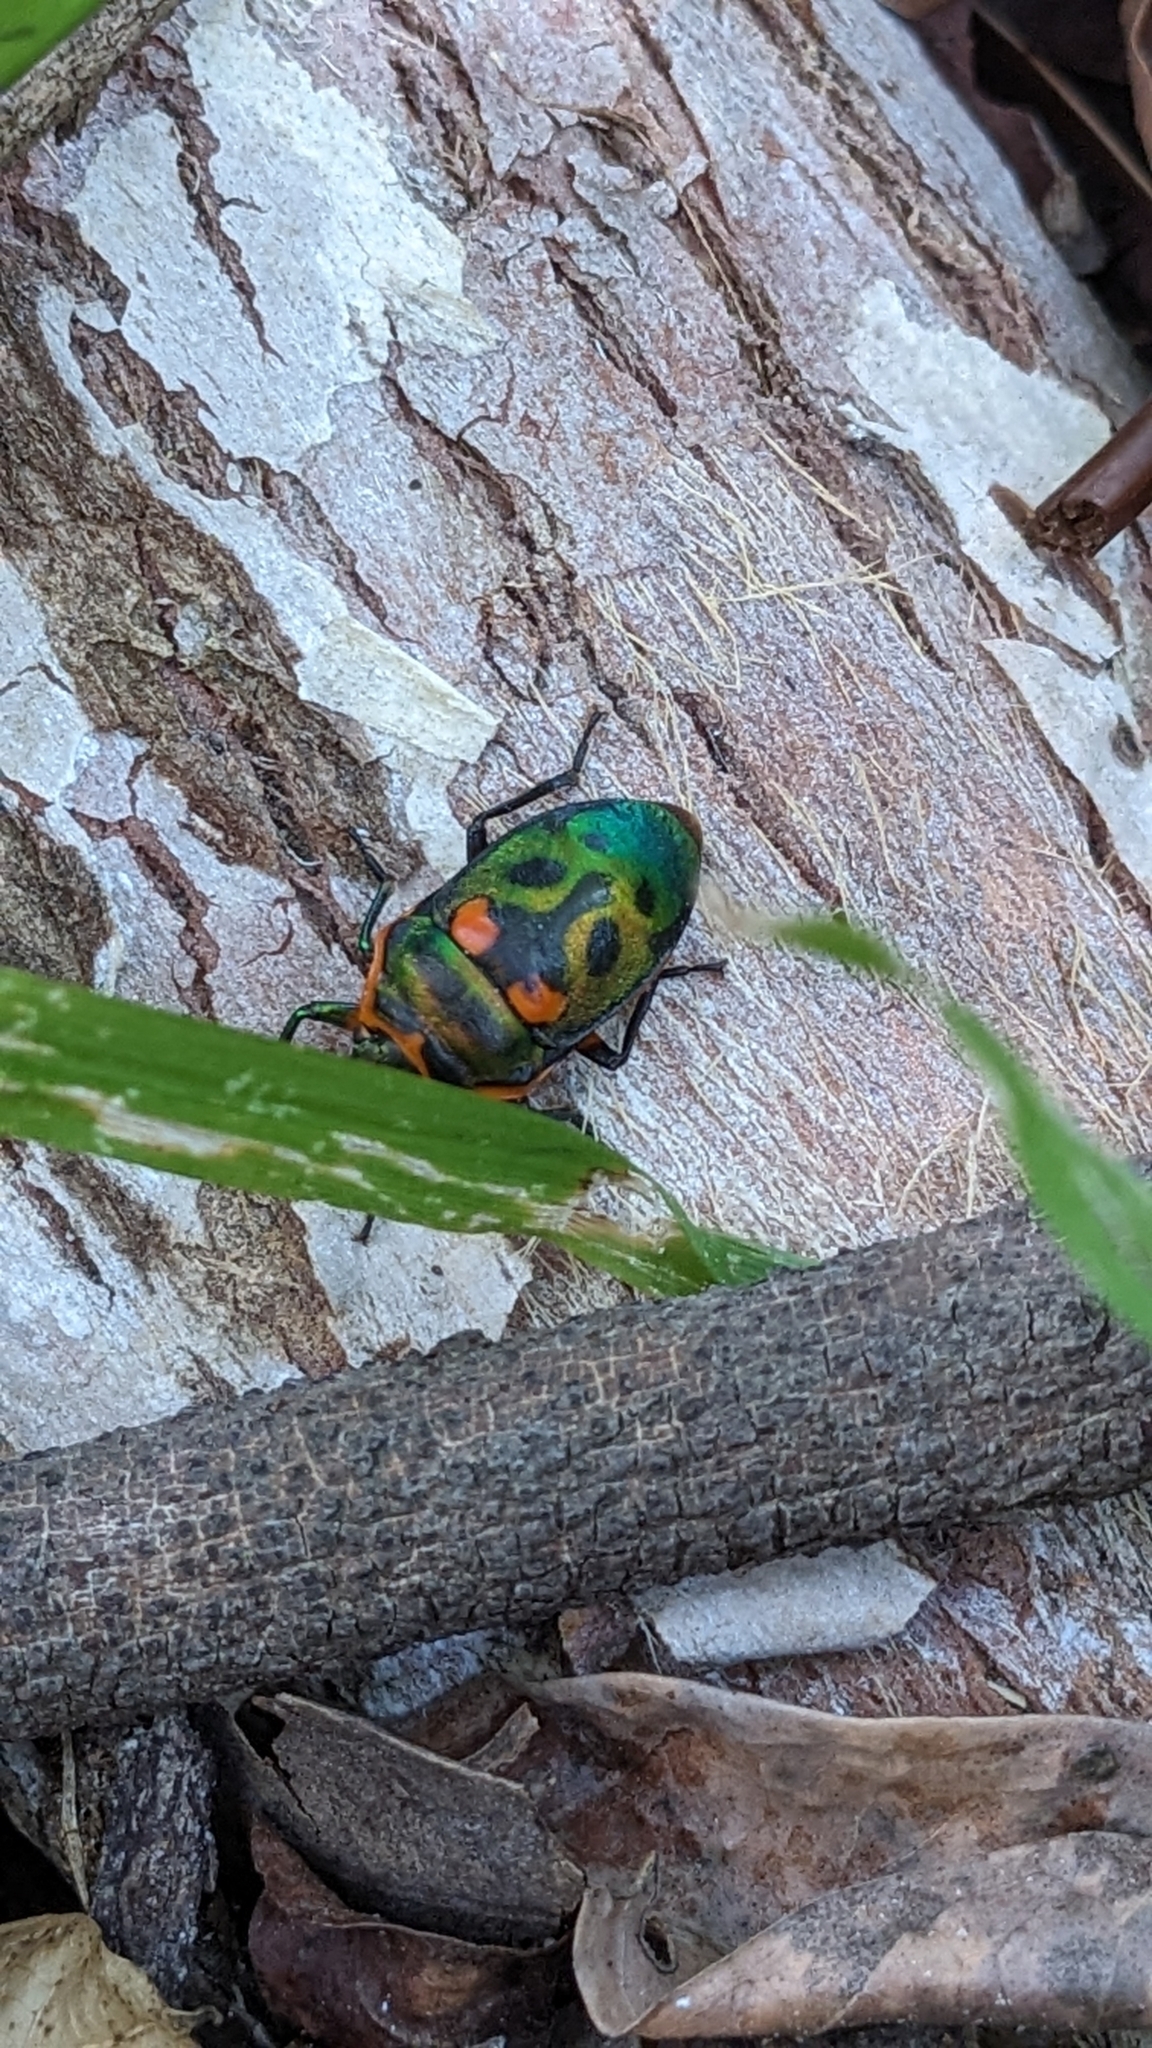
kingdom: Animalia
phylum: Arthropoda
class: Insecta
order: Hemiptera
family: Scutelleridae
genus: Scutiphora
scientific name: Scutiphora pedicellata
